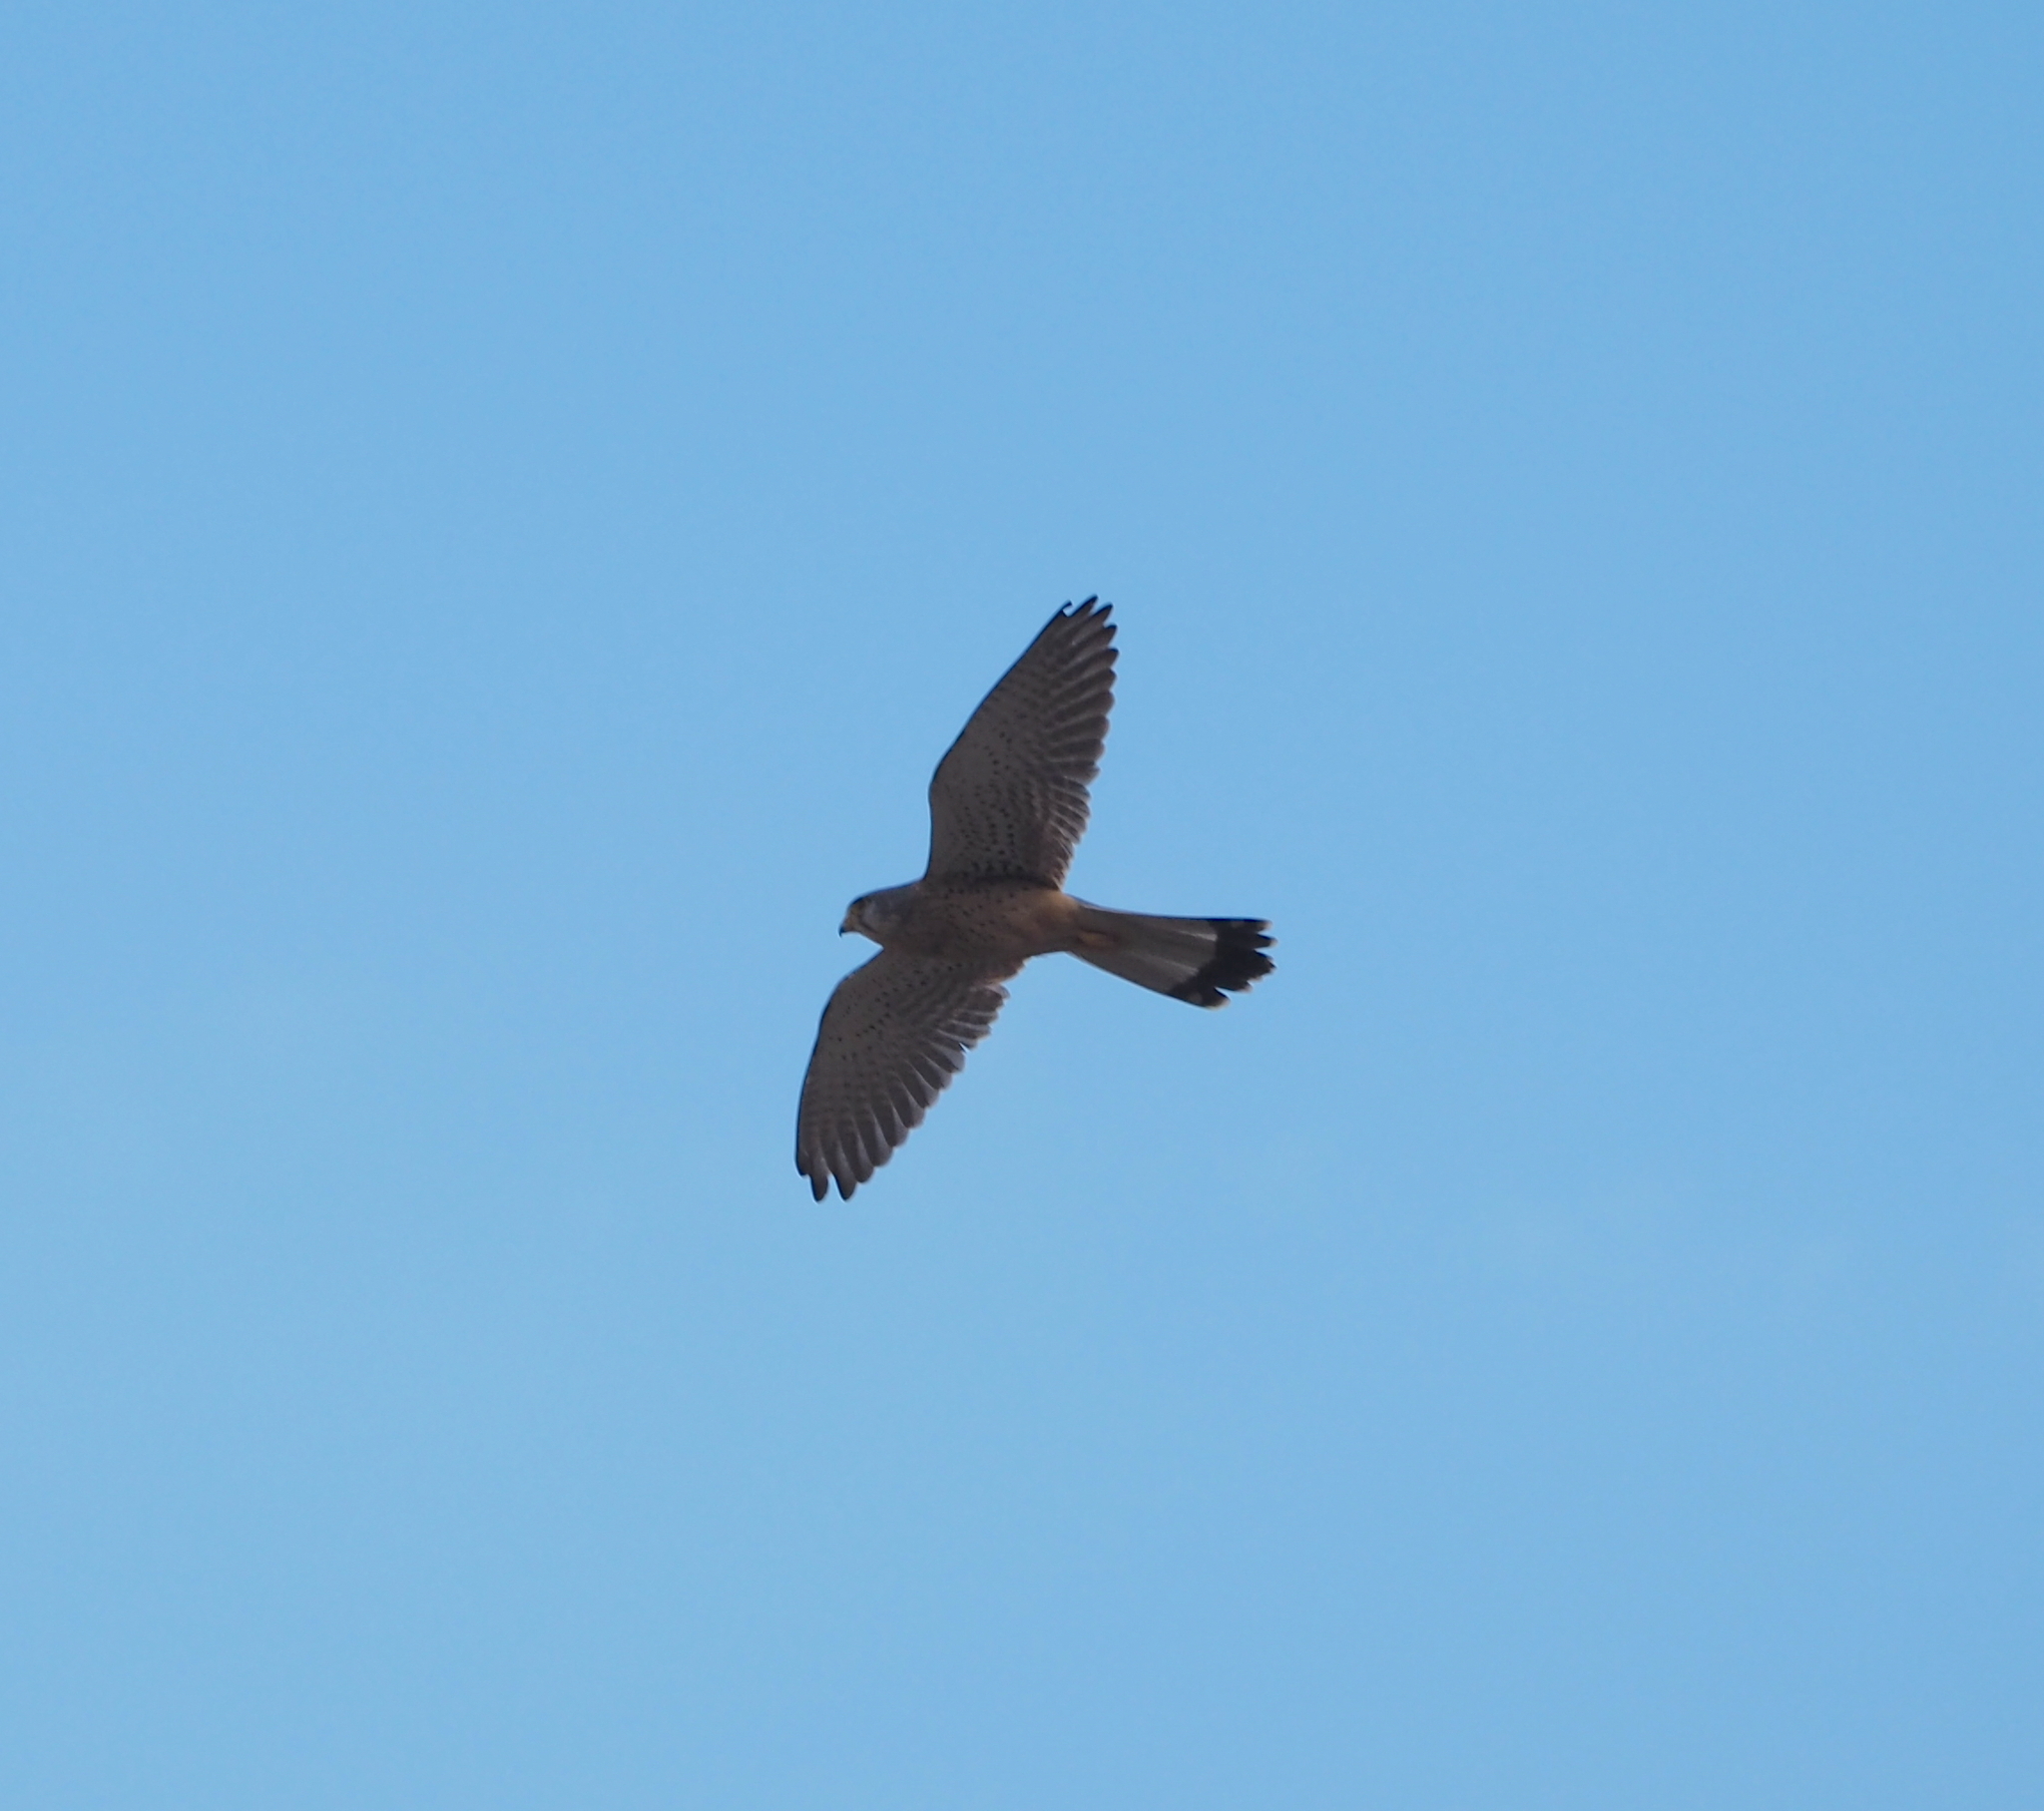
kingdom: Animalia
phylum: Chordata
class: Aves
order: Falconiformes
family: Falconidae
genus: Falco
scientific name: Falco tinnunculus
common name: Common kestrel
